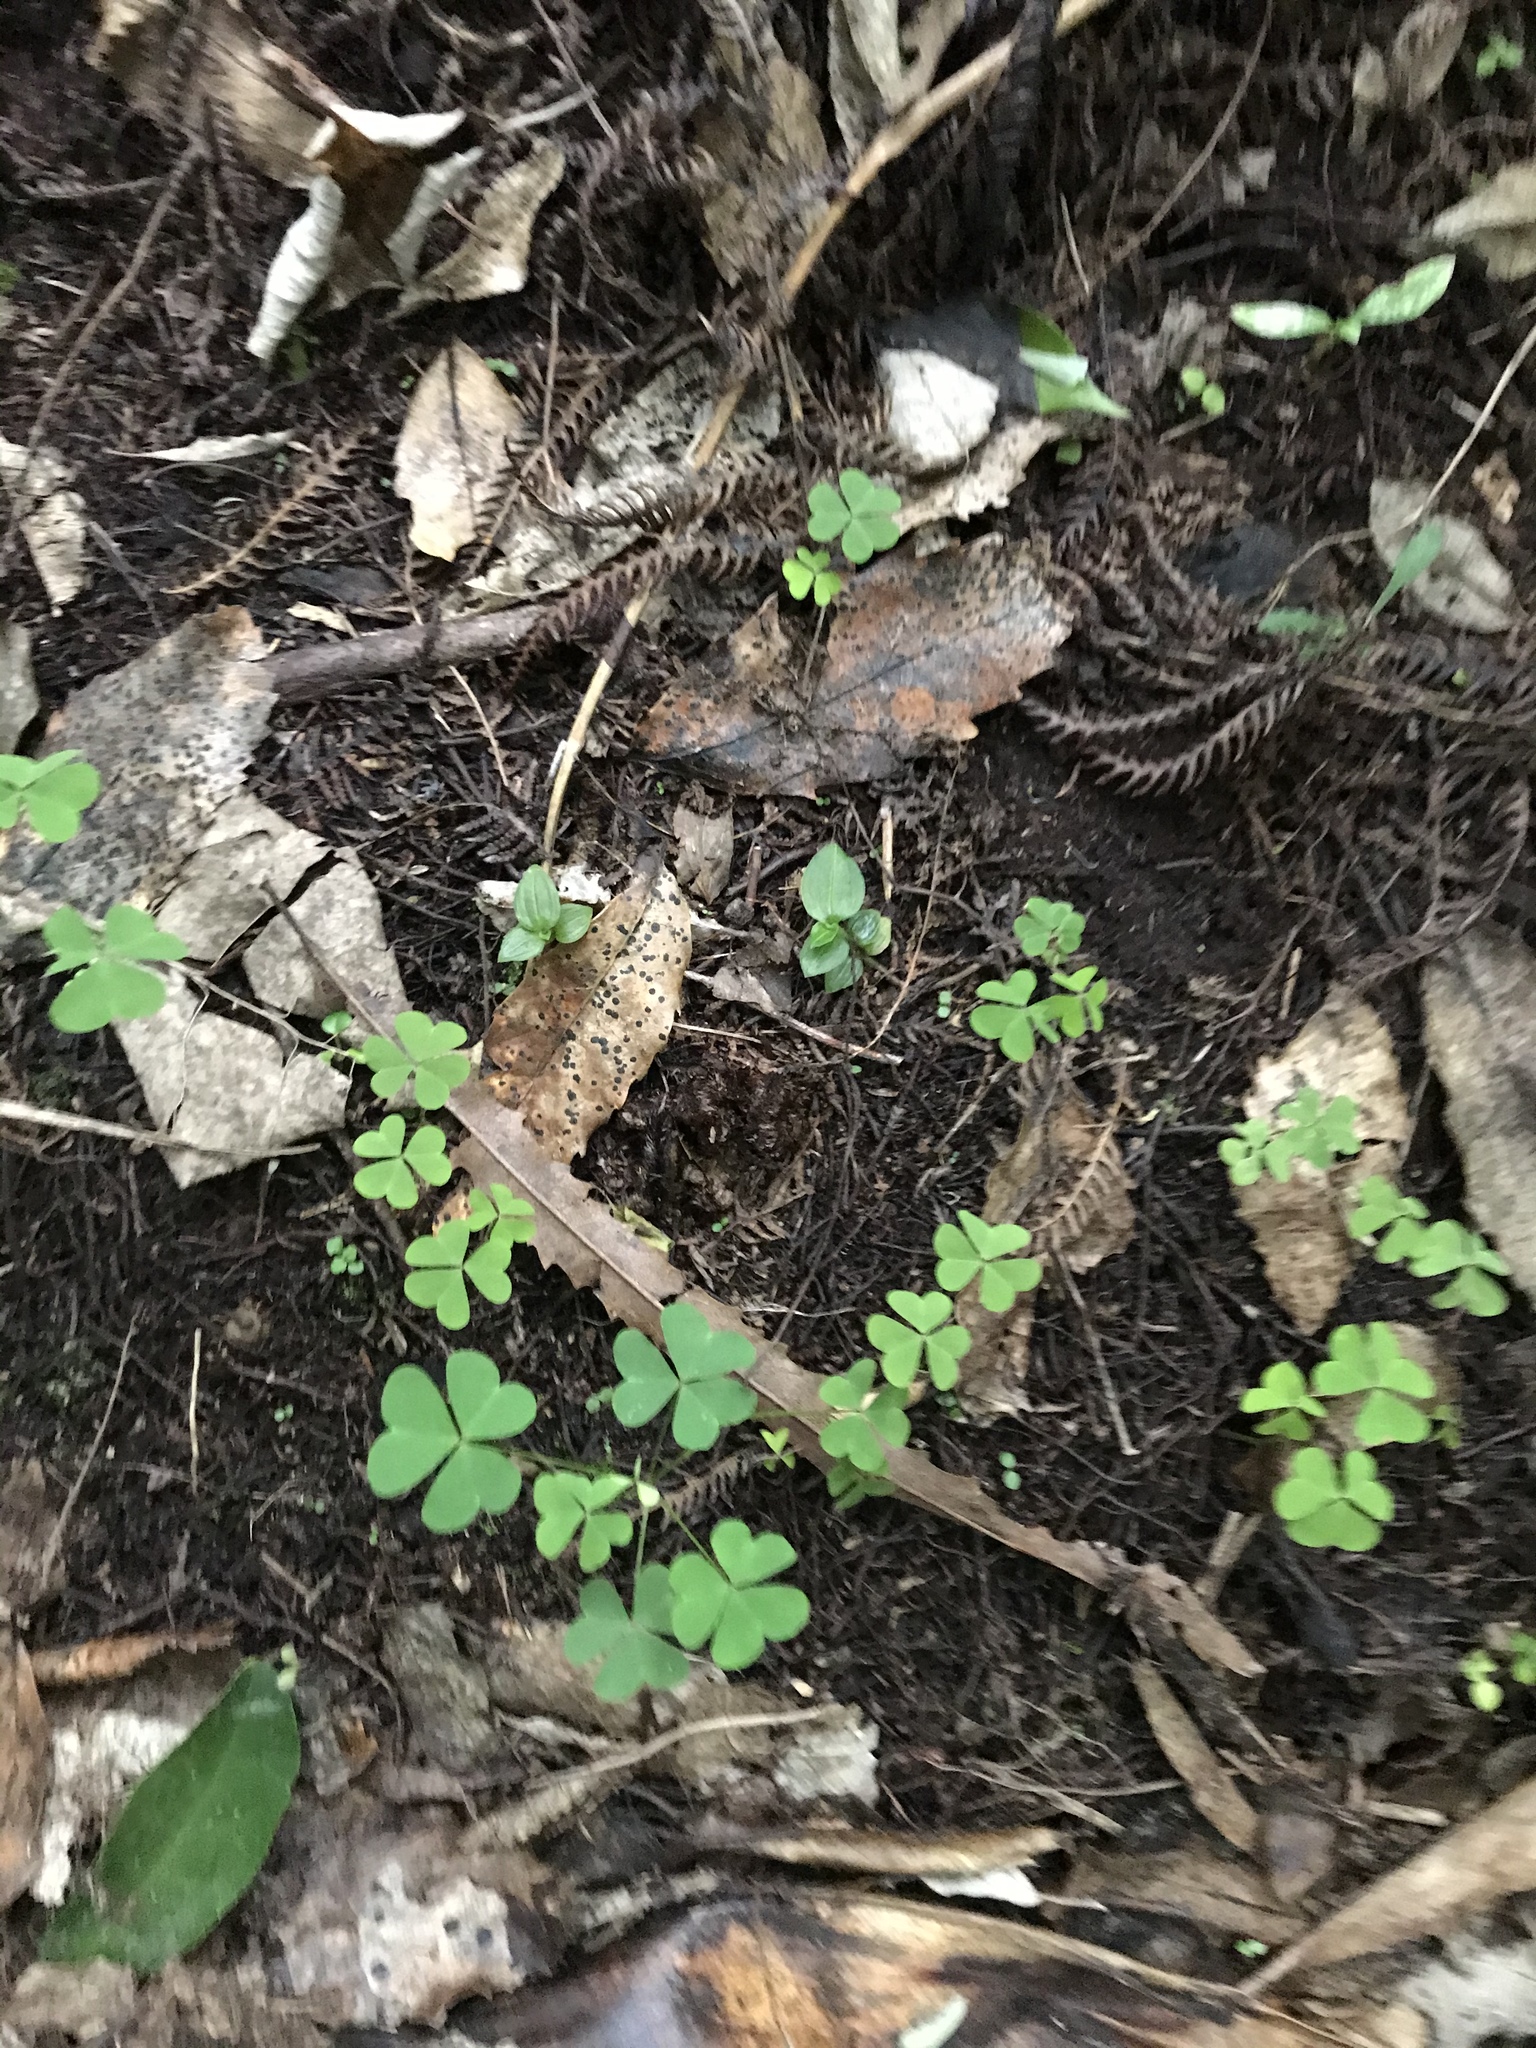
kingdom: Plantae
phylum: Tracheophyta
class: Magnoliopsida
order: Oxalidales
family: Oxalidaceae
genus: Oxalis
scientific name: Oxalis incarnata
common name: Pale pink-sorrel
